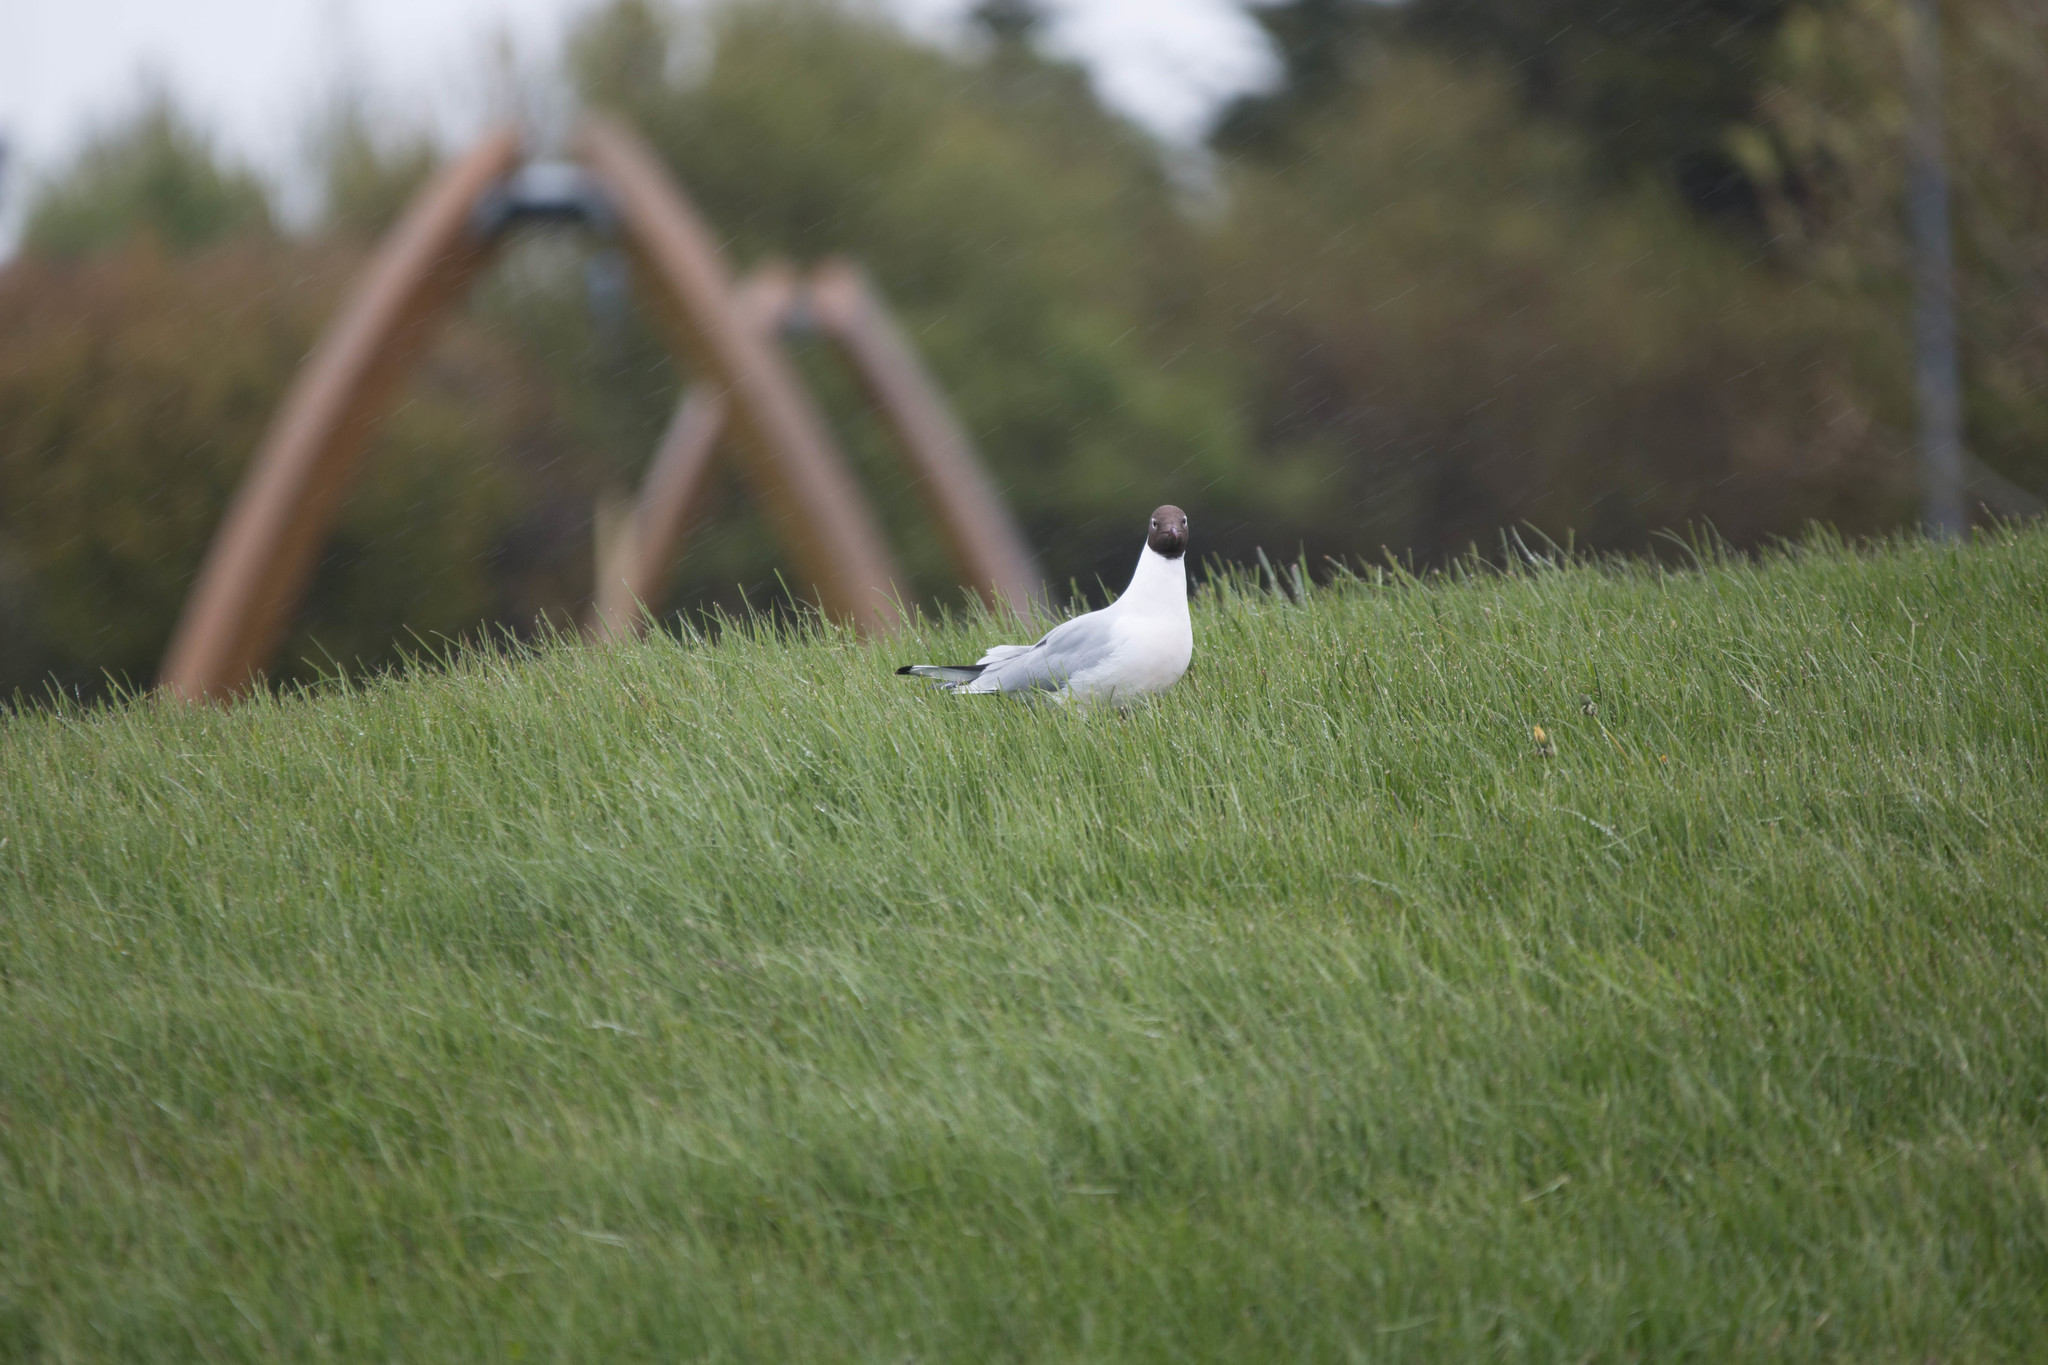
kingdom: Animalia
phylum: Chordata
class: Aves
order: Charadriiformes
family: Laridae
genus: Chroicocephalus
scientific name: Chroicocephalus ridibundus
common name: Black-headed gull
